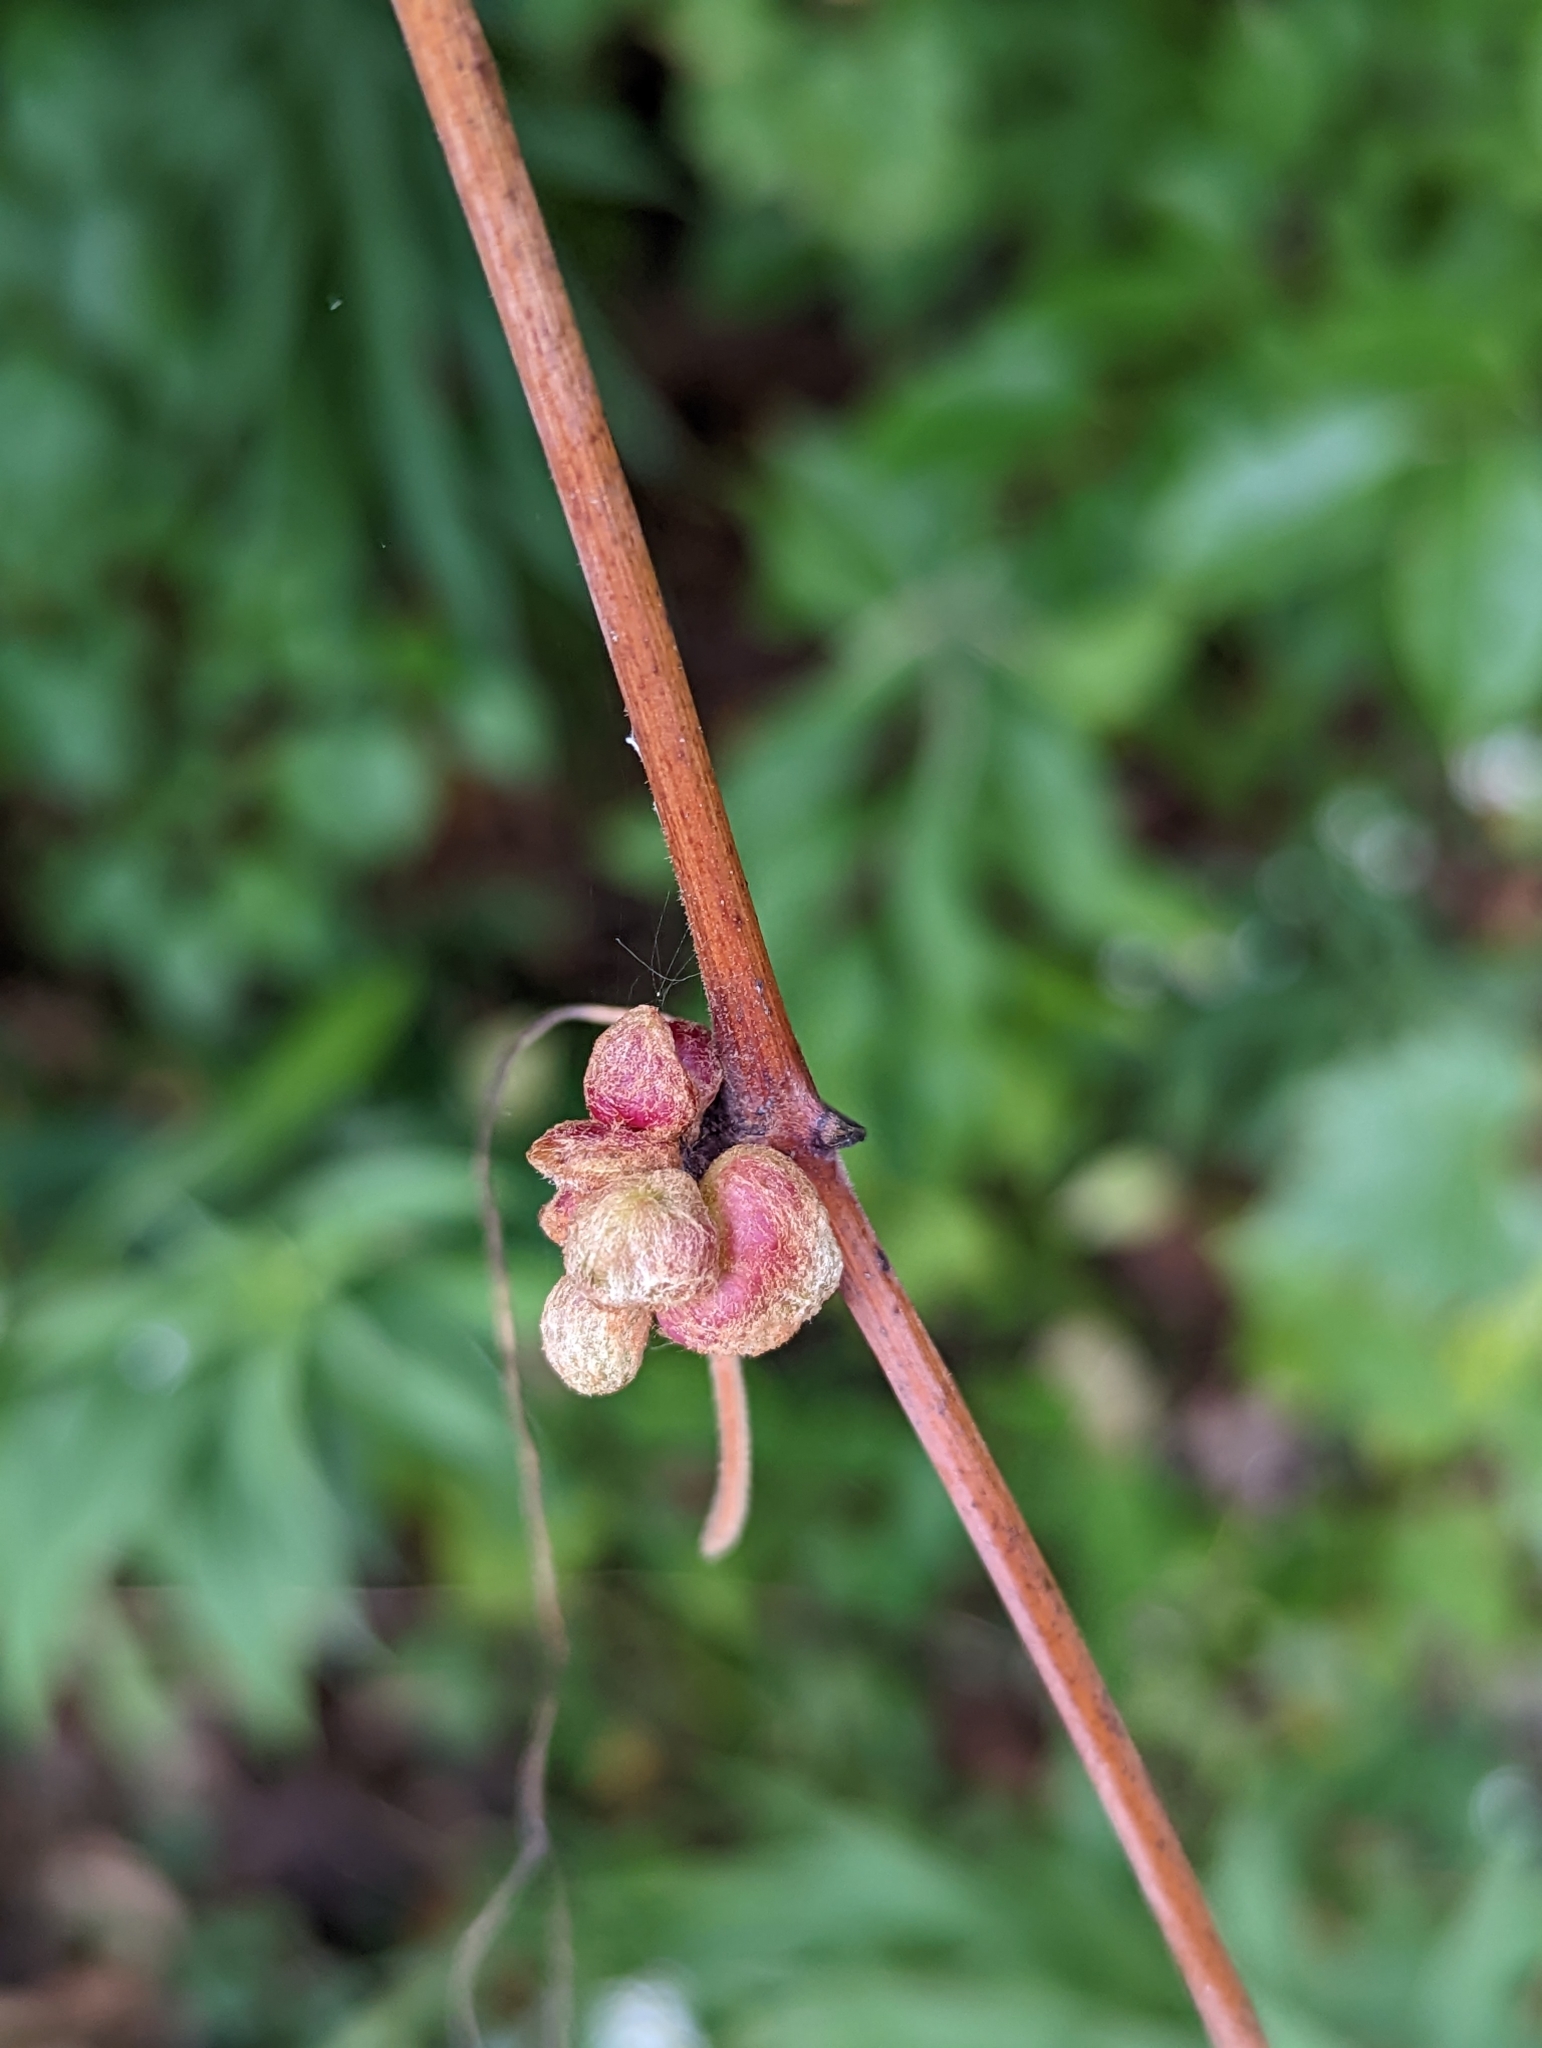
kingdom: Animalia
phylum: Arthropoda
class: Insecta
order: Diptera
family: Cecidomyiidae
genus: Ampelomyia
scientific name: Ampelomyia vitiscoryloides
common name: Grape filbert gall
